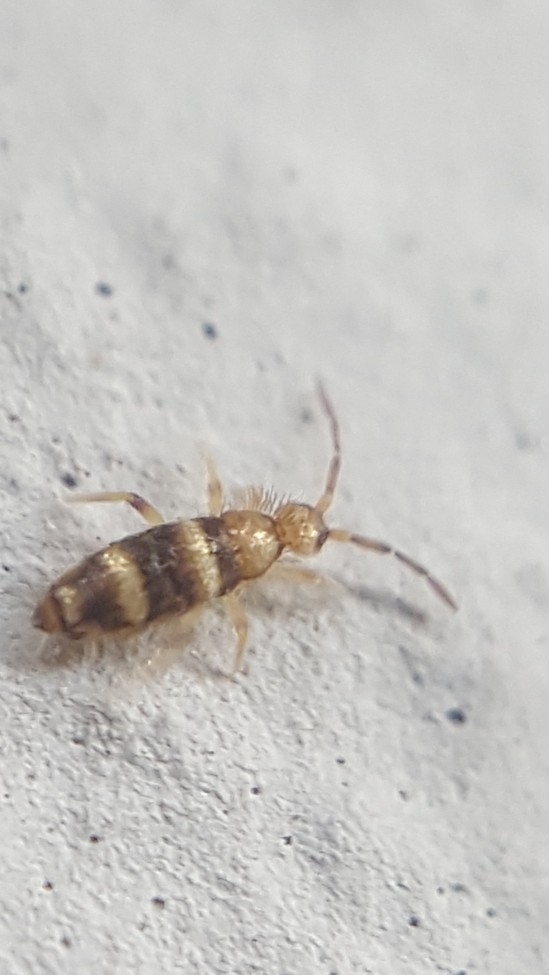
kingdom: Animalia
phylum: Arthropoda
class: Collembola
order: Entomobryomorpha
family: Entomobryidae
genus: Willowsia
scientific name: Willowsia platani
